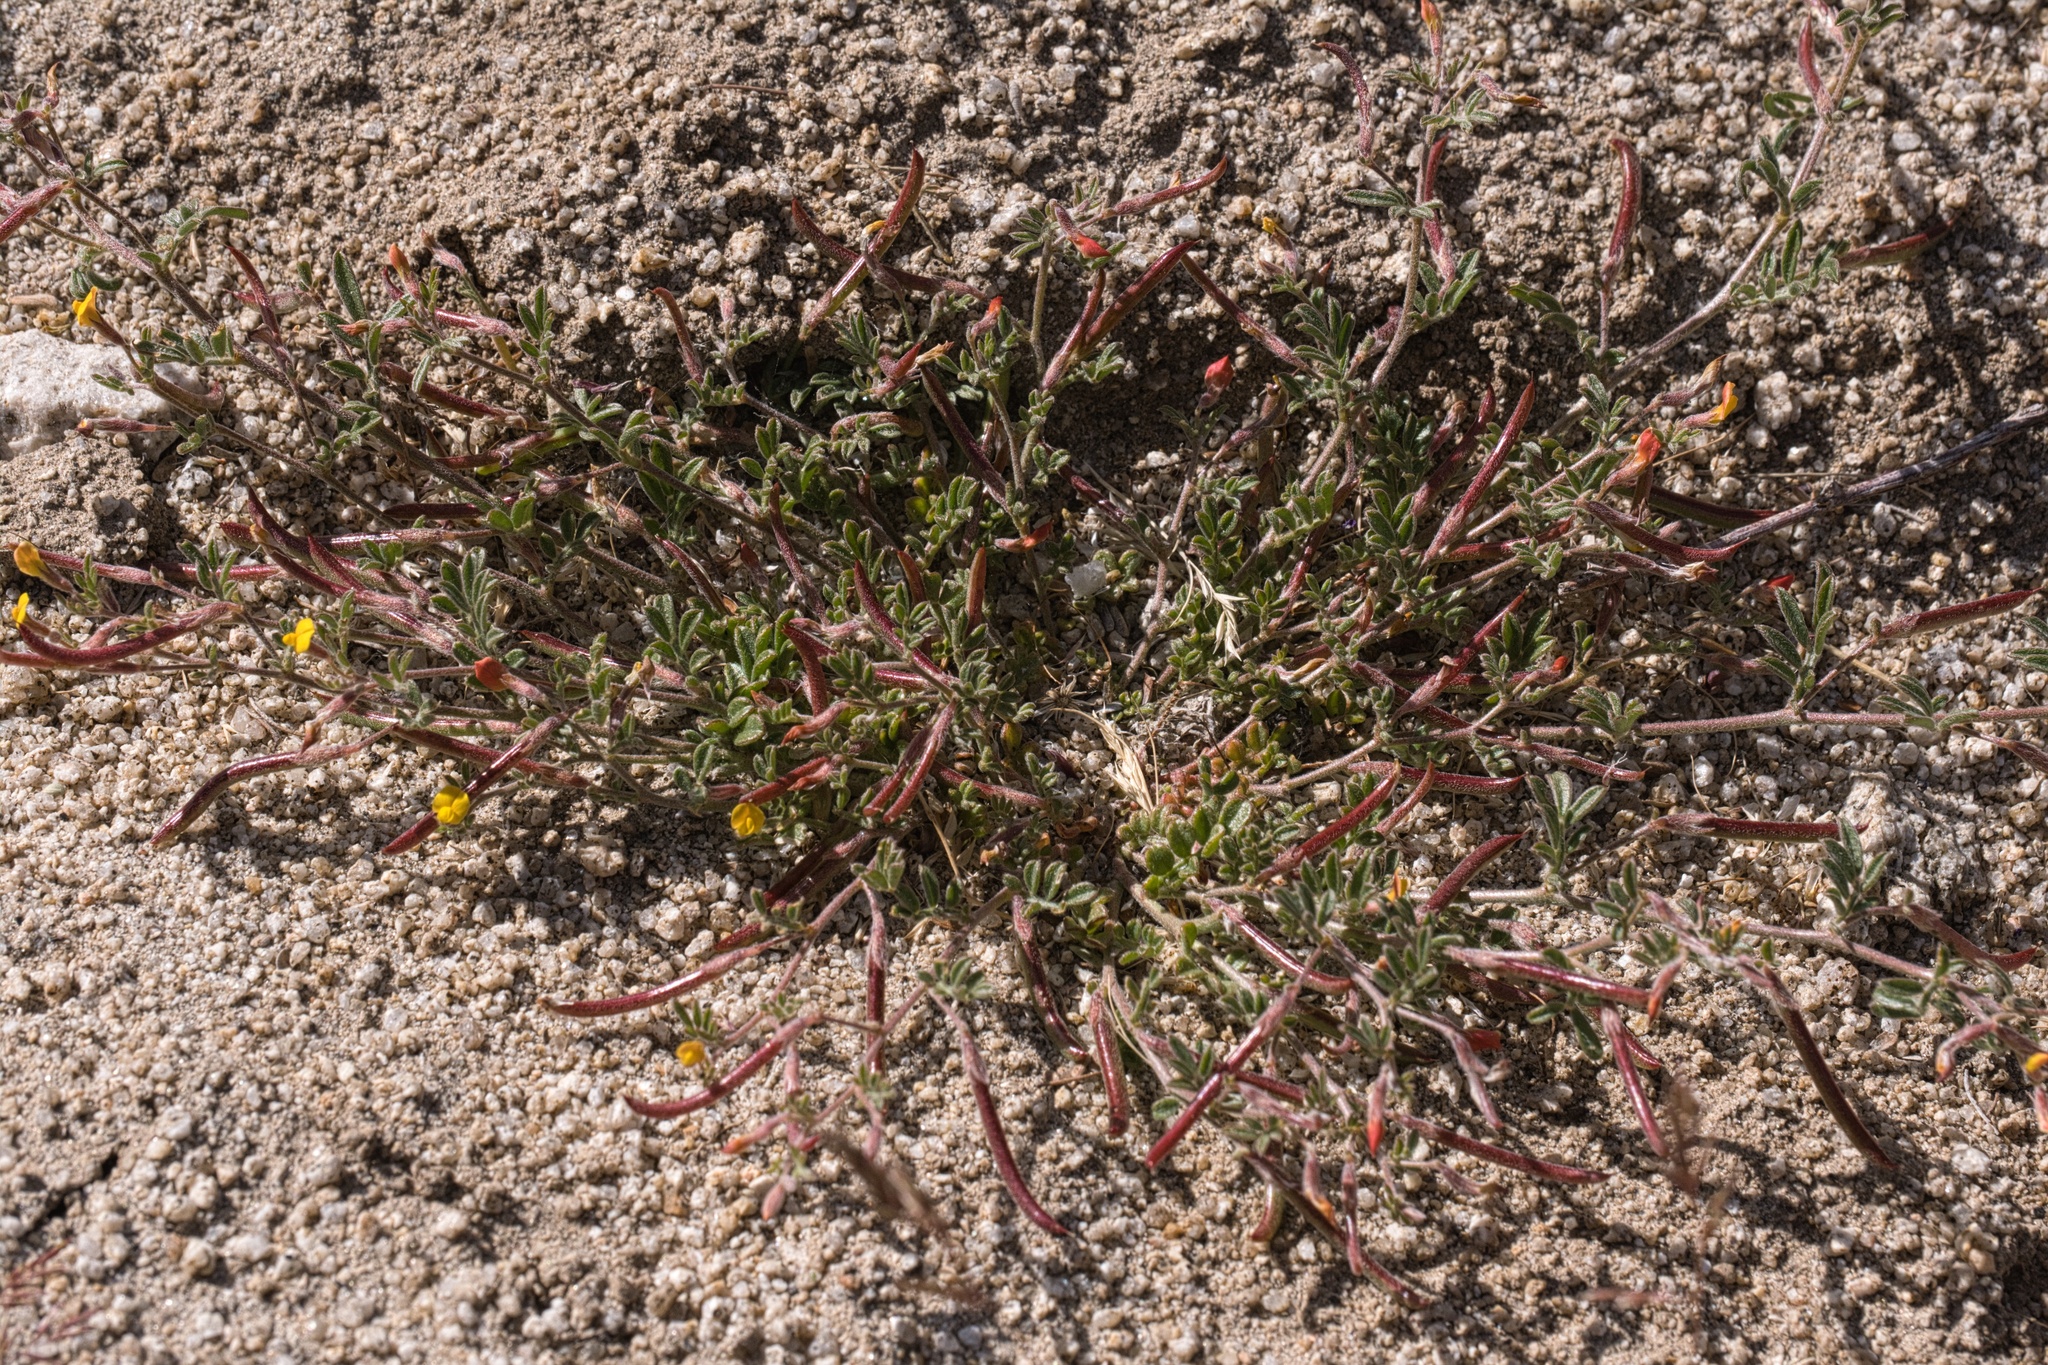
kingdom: Plantae
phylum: Tracheophyta
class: Magnoliopsida
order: Fabales
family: Fabaceae
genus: Acmispon
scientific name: Acmispon strigosus
